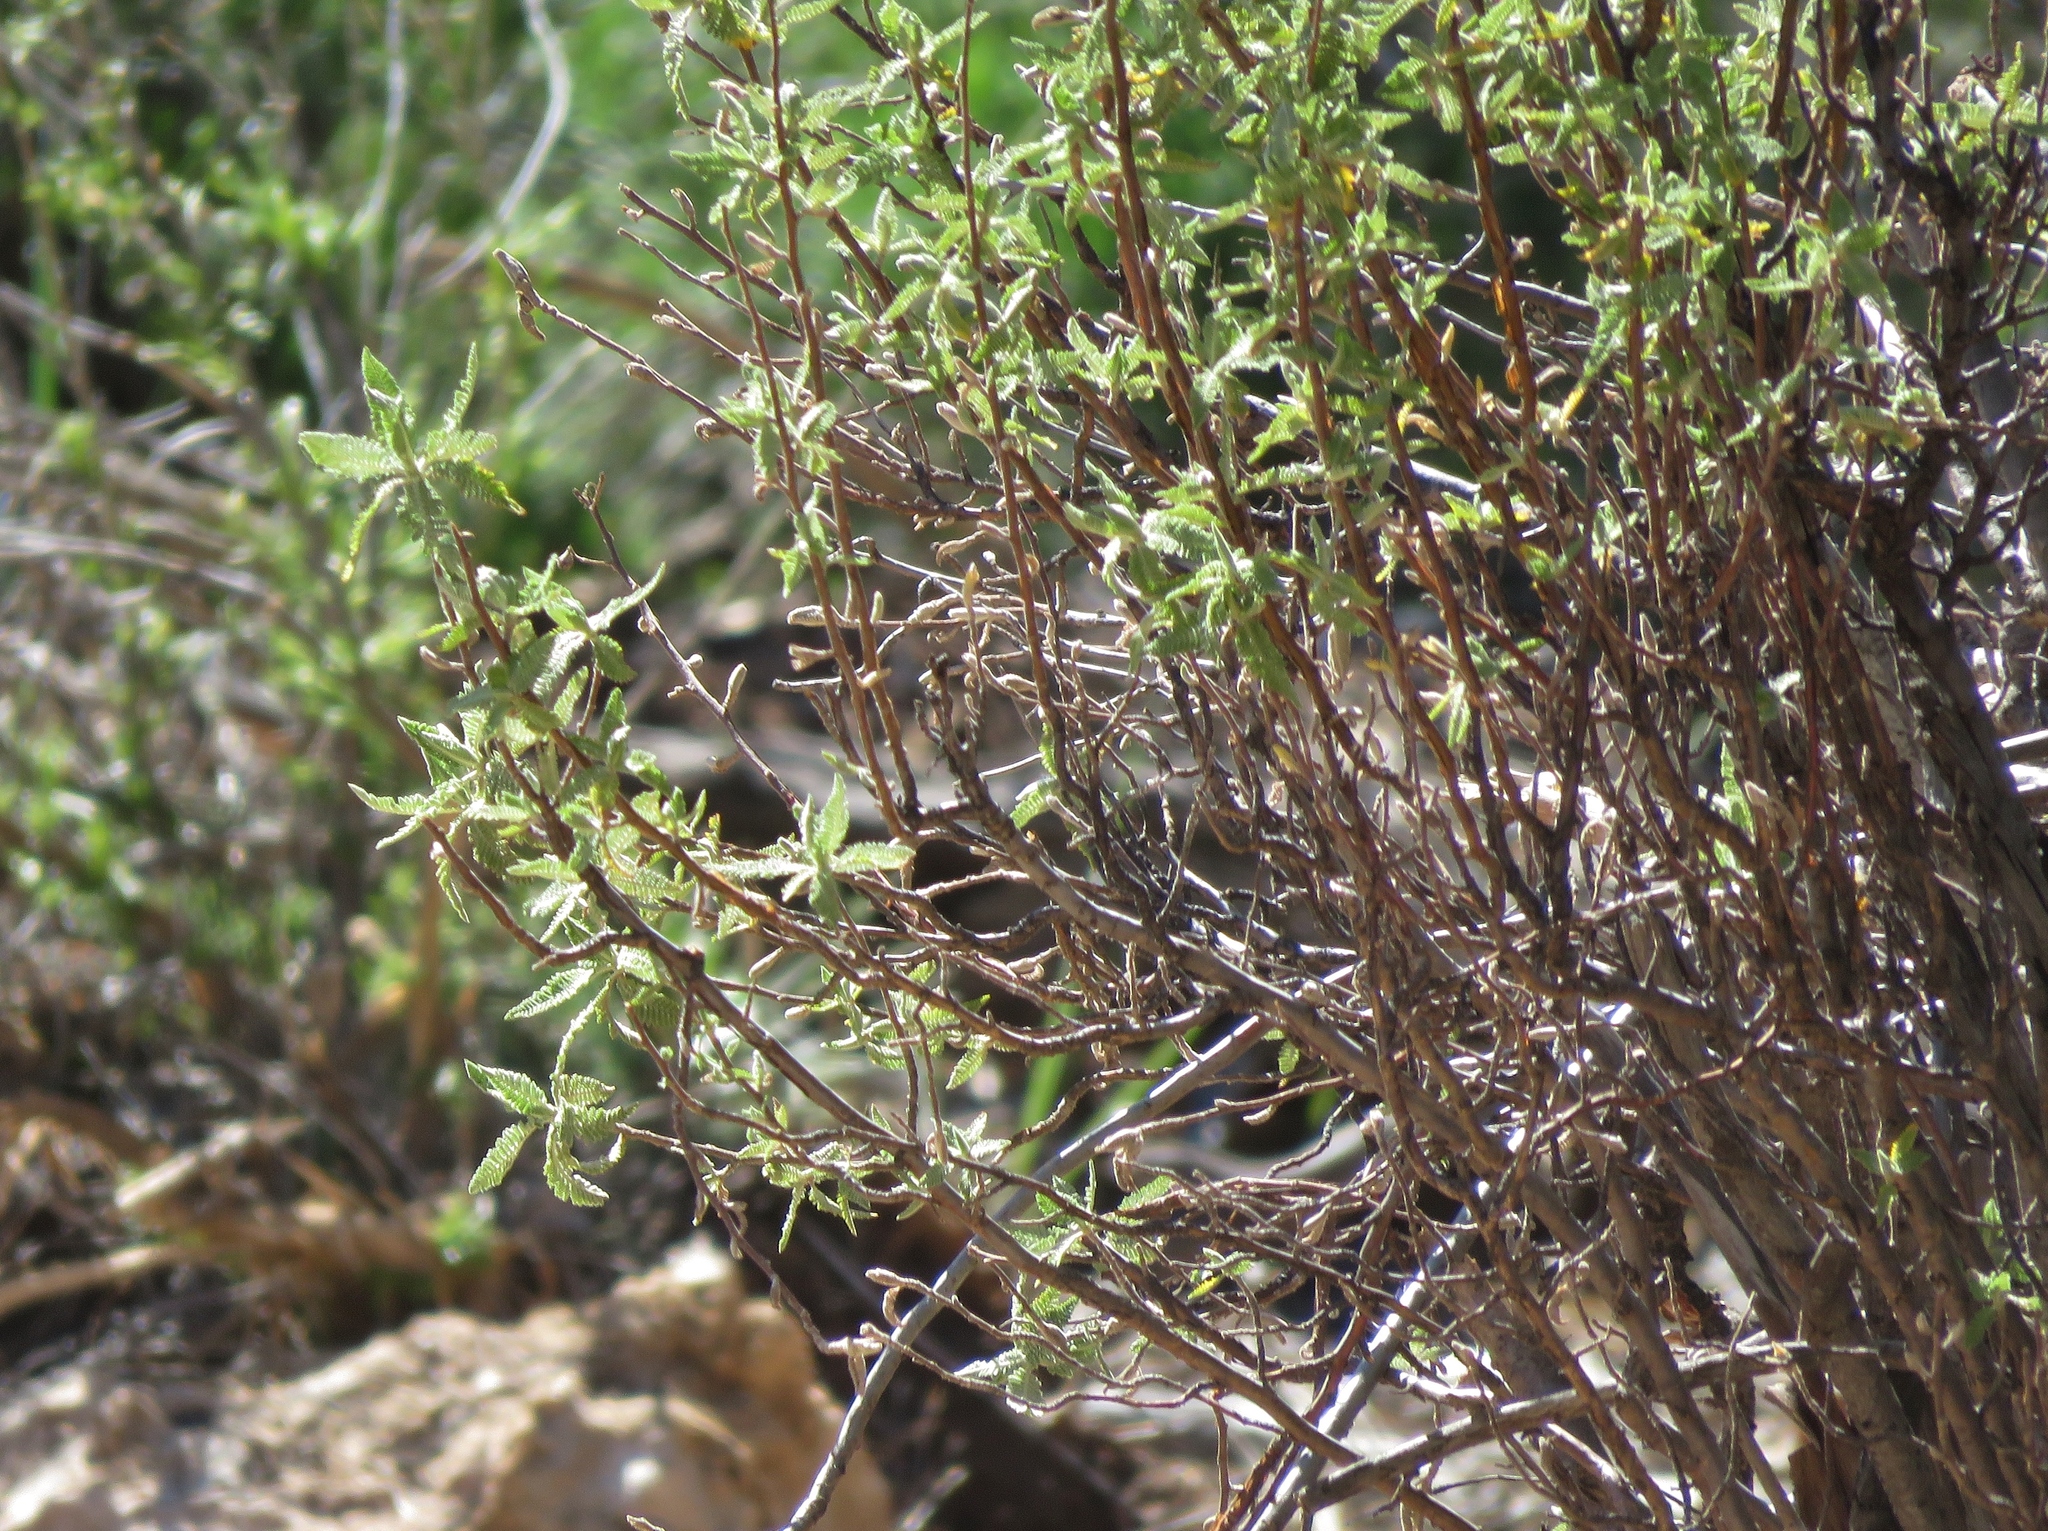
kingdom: Plantae
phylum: Tracheophyta
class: Magnoliopsida
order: Rosales
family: Rosaceae
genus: Chamaebatiaria
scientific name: Chamaebatiaria millefolium
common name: Fernbush
